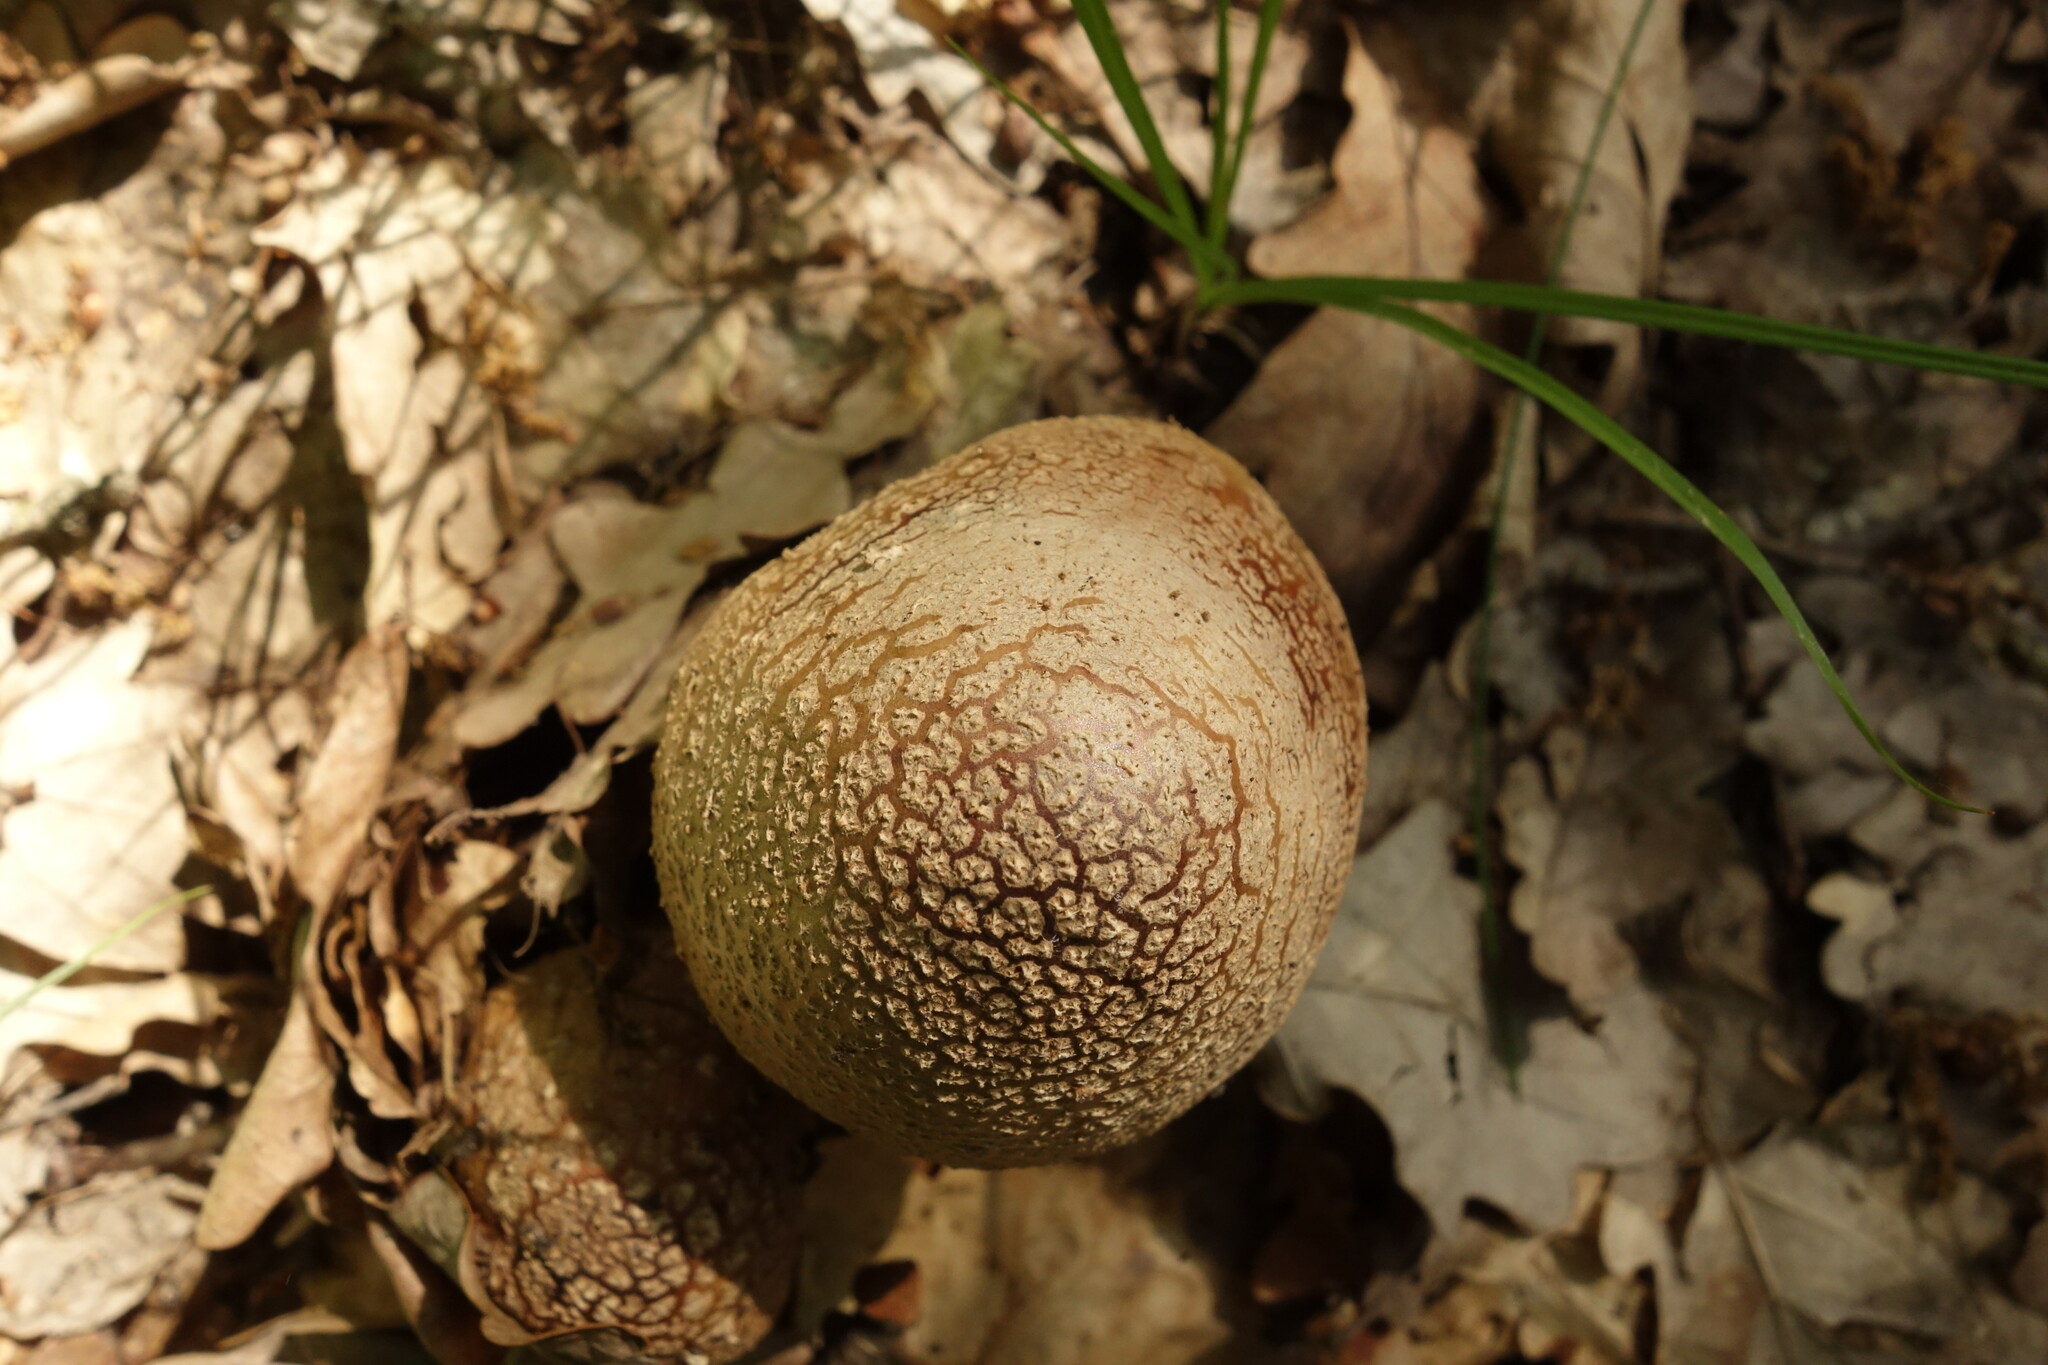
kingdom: Fungi
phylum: Basidiomycota
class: Agaricomycetes
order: Agaricales
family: Amanitaceae
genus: Amanita
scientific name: Amanita rubescens
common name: Blusher
